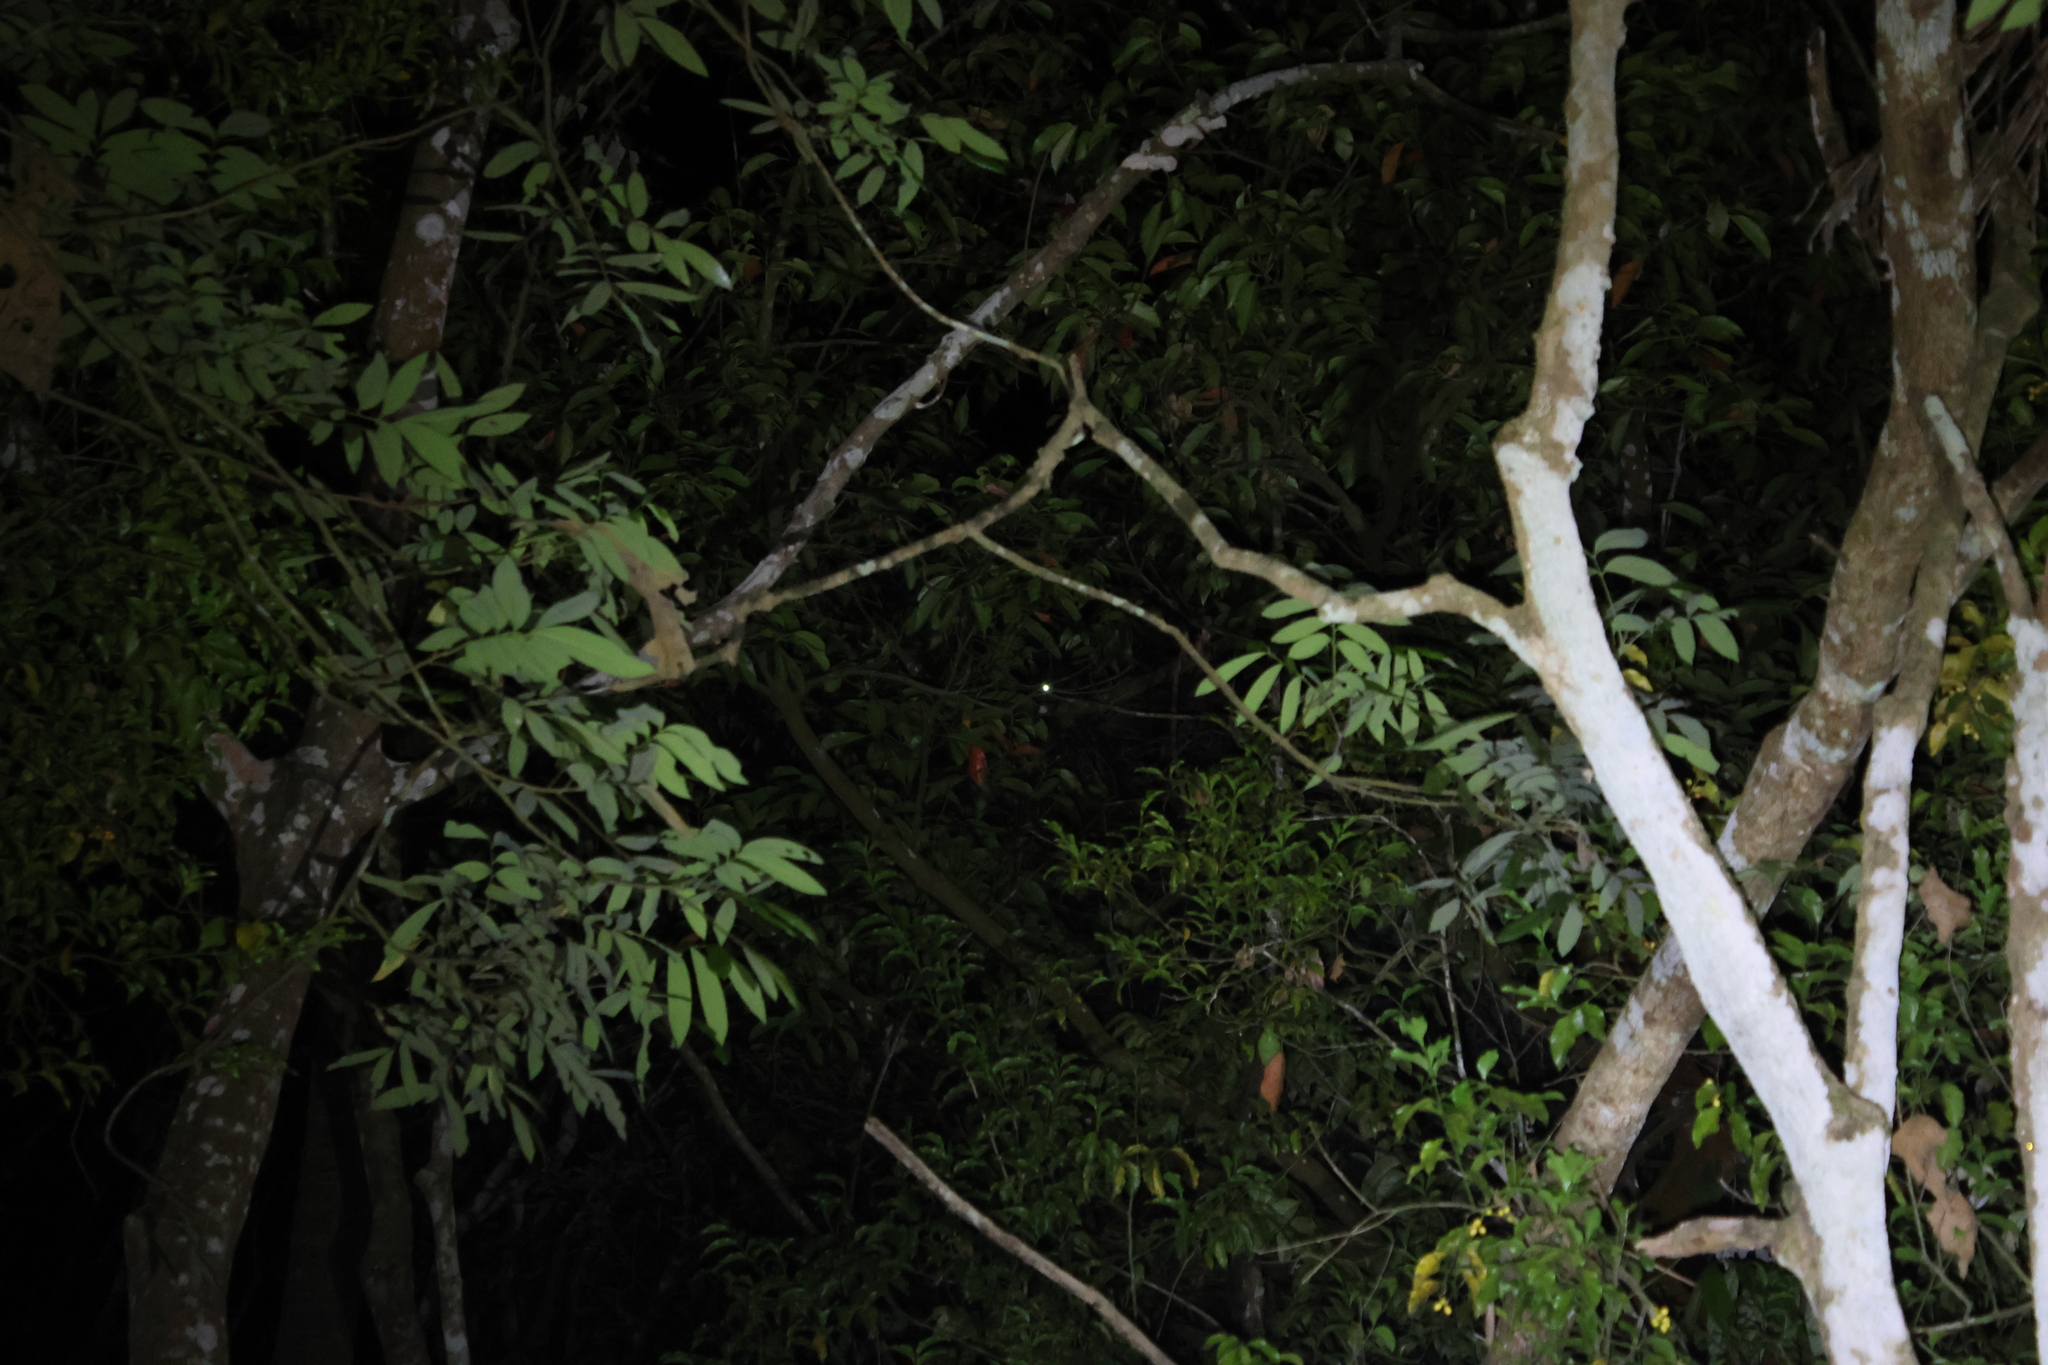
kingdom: Animalia
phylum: Chordata
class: Mammalia
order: Rodentia
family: Sciuridae
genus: Petaurista
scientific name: Petaurista
